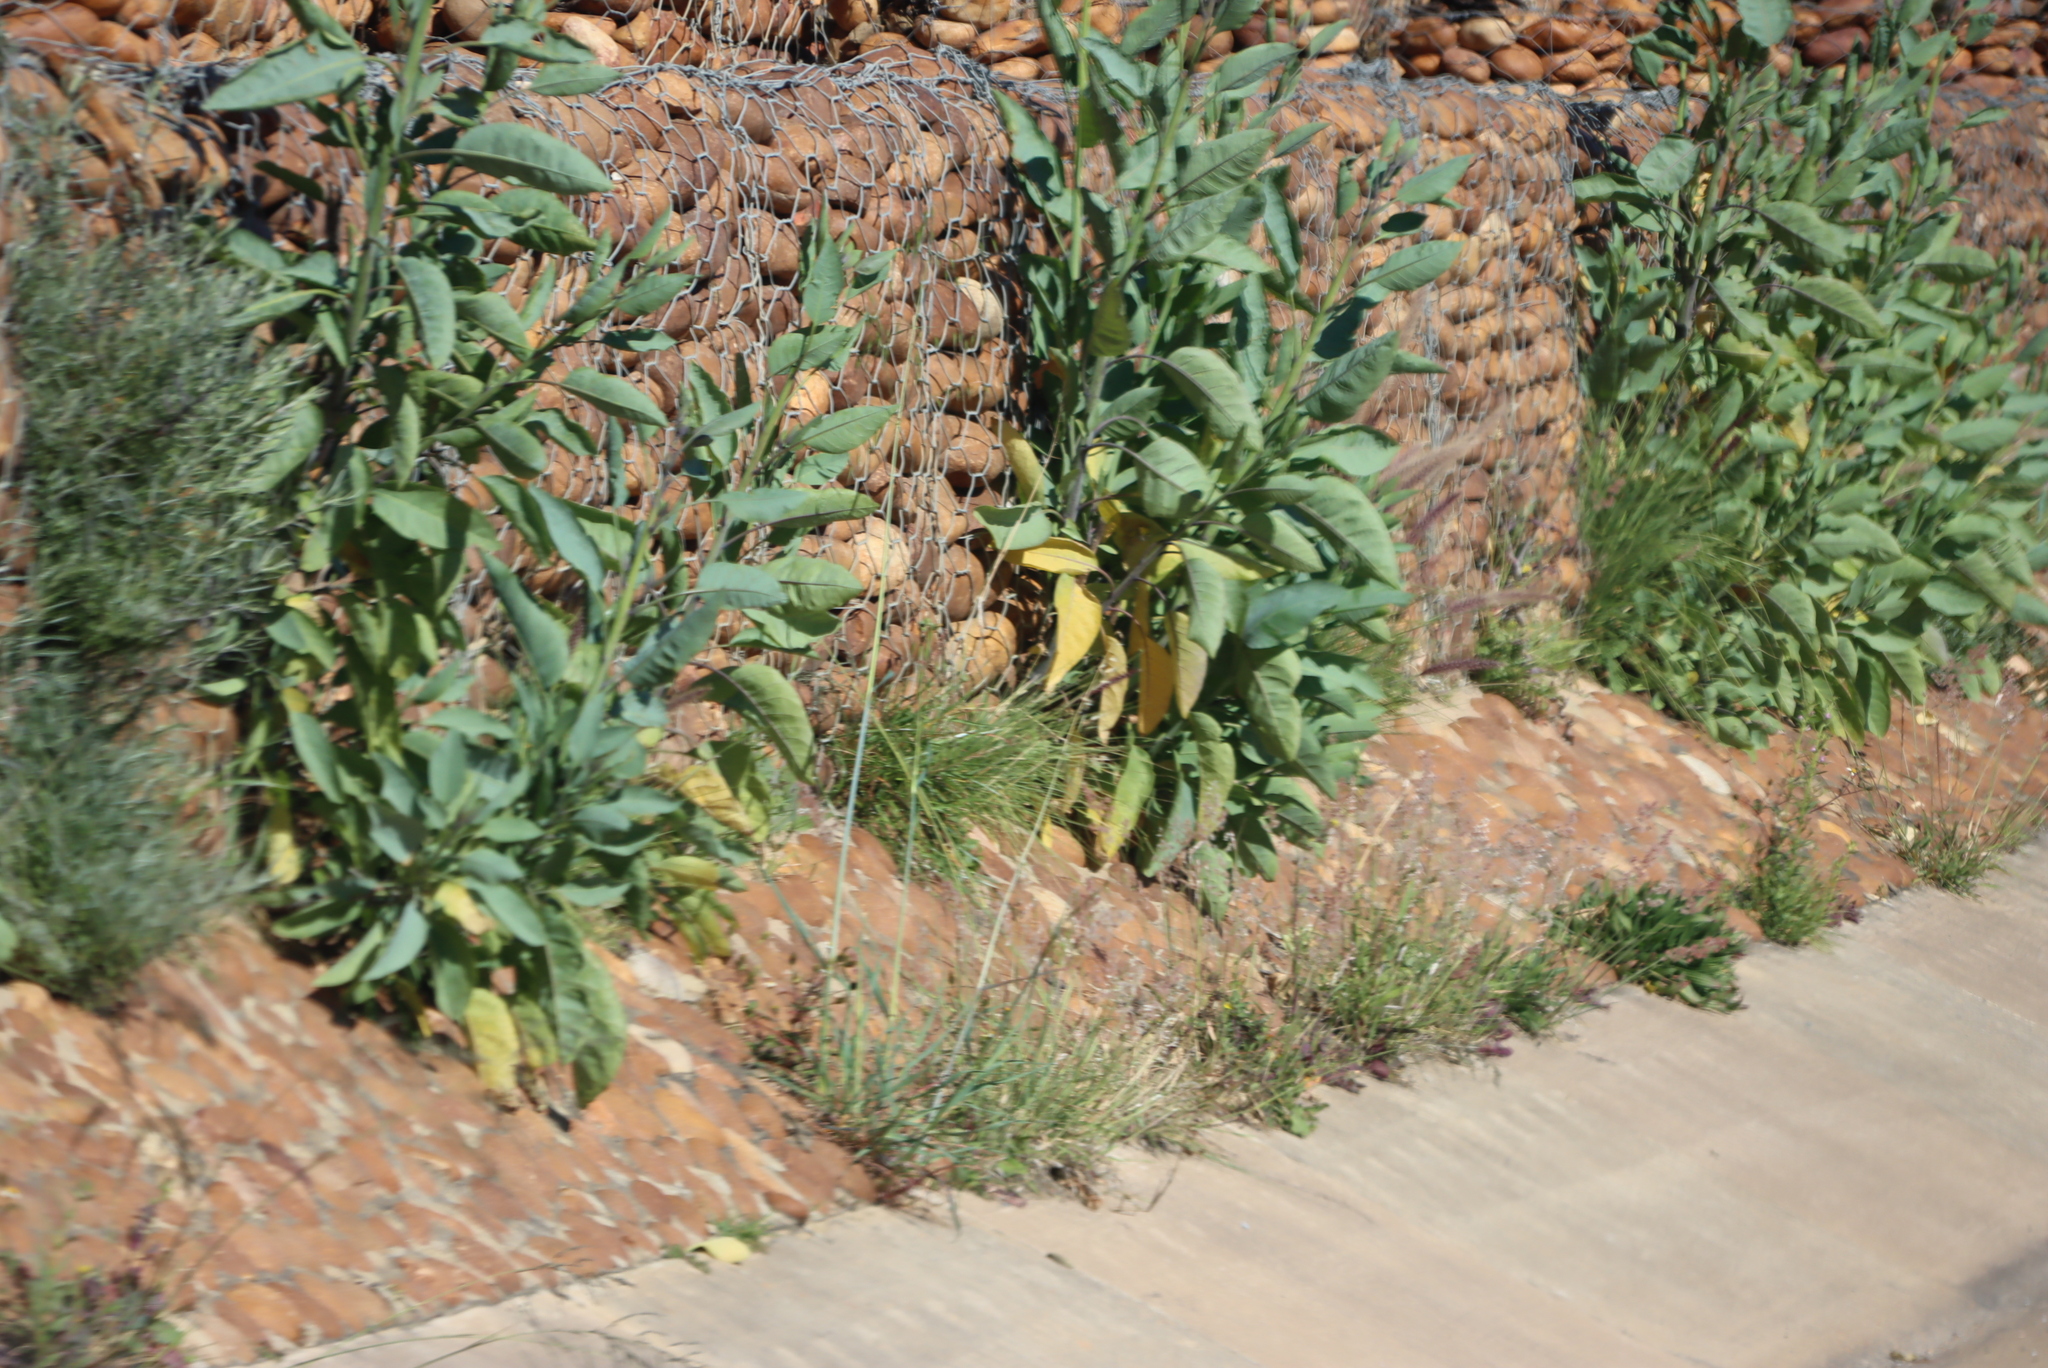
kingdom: Plantae
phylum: Tracheophyta
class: Magnoliopsida
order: Solanales
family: Solanaceae
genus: Nicotiana
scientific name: Nicotiana glauca
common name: Tree tobacco
